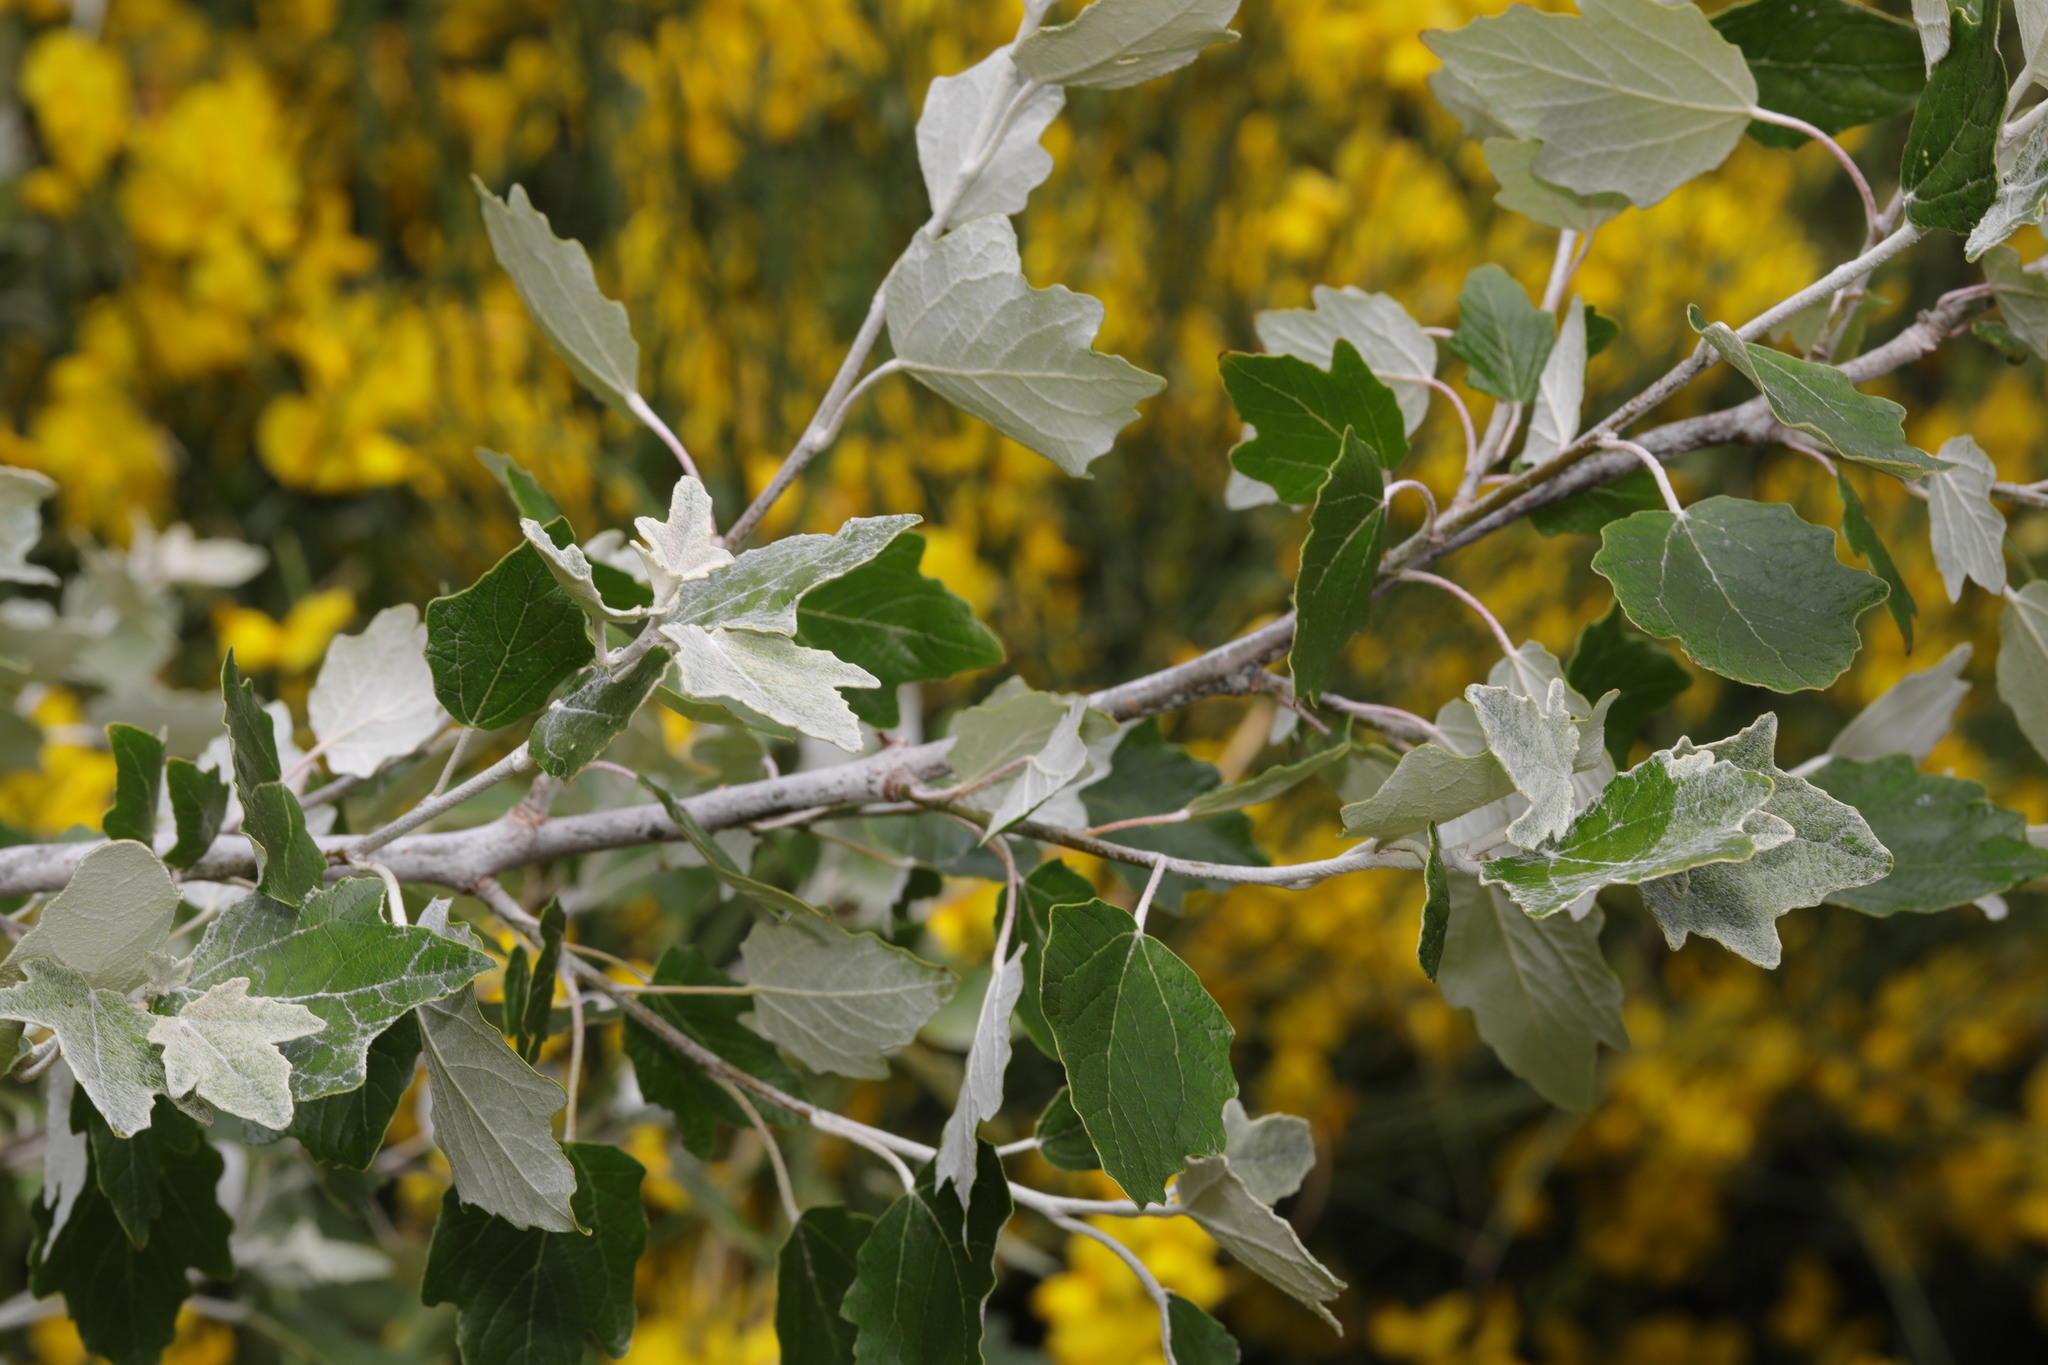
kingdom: Plantae
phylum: Tracheophyta
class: Magnoliopsida
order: Malpighiales
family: Salicaceae
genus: Populus
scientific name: Populus alba
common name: White poplar
